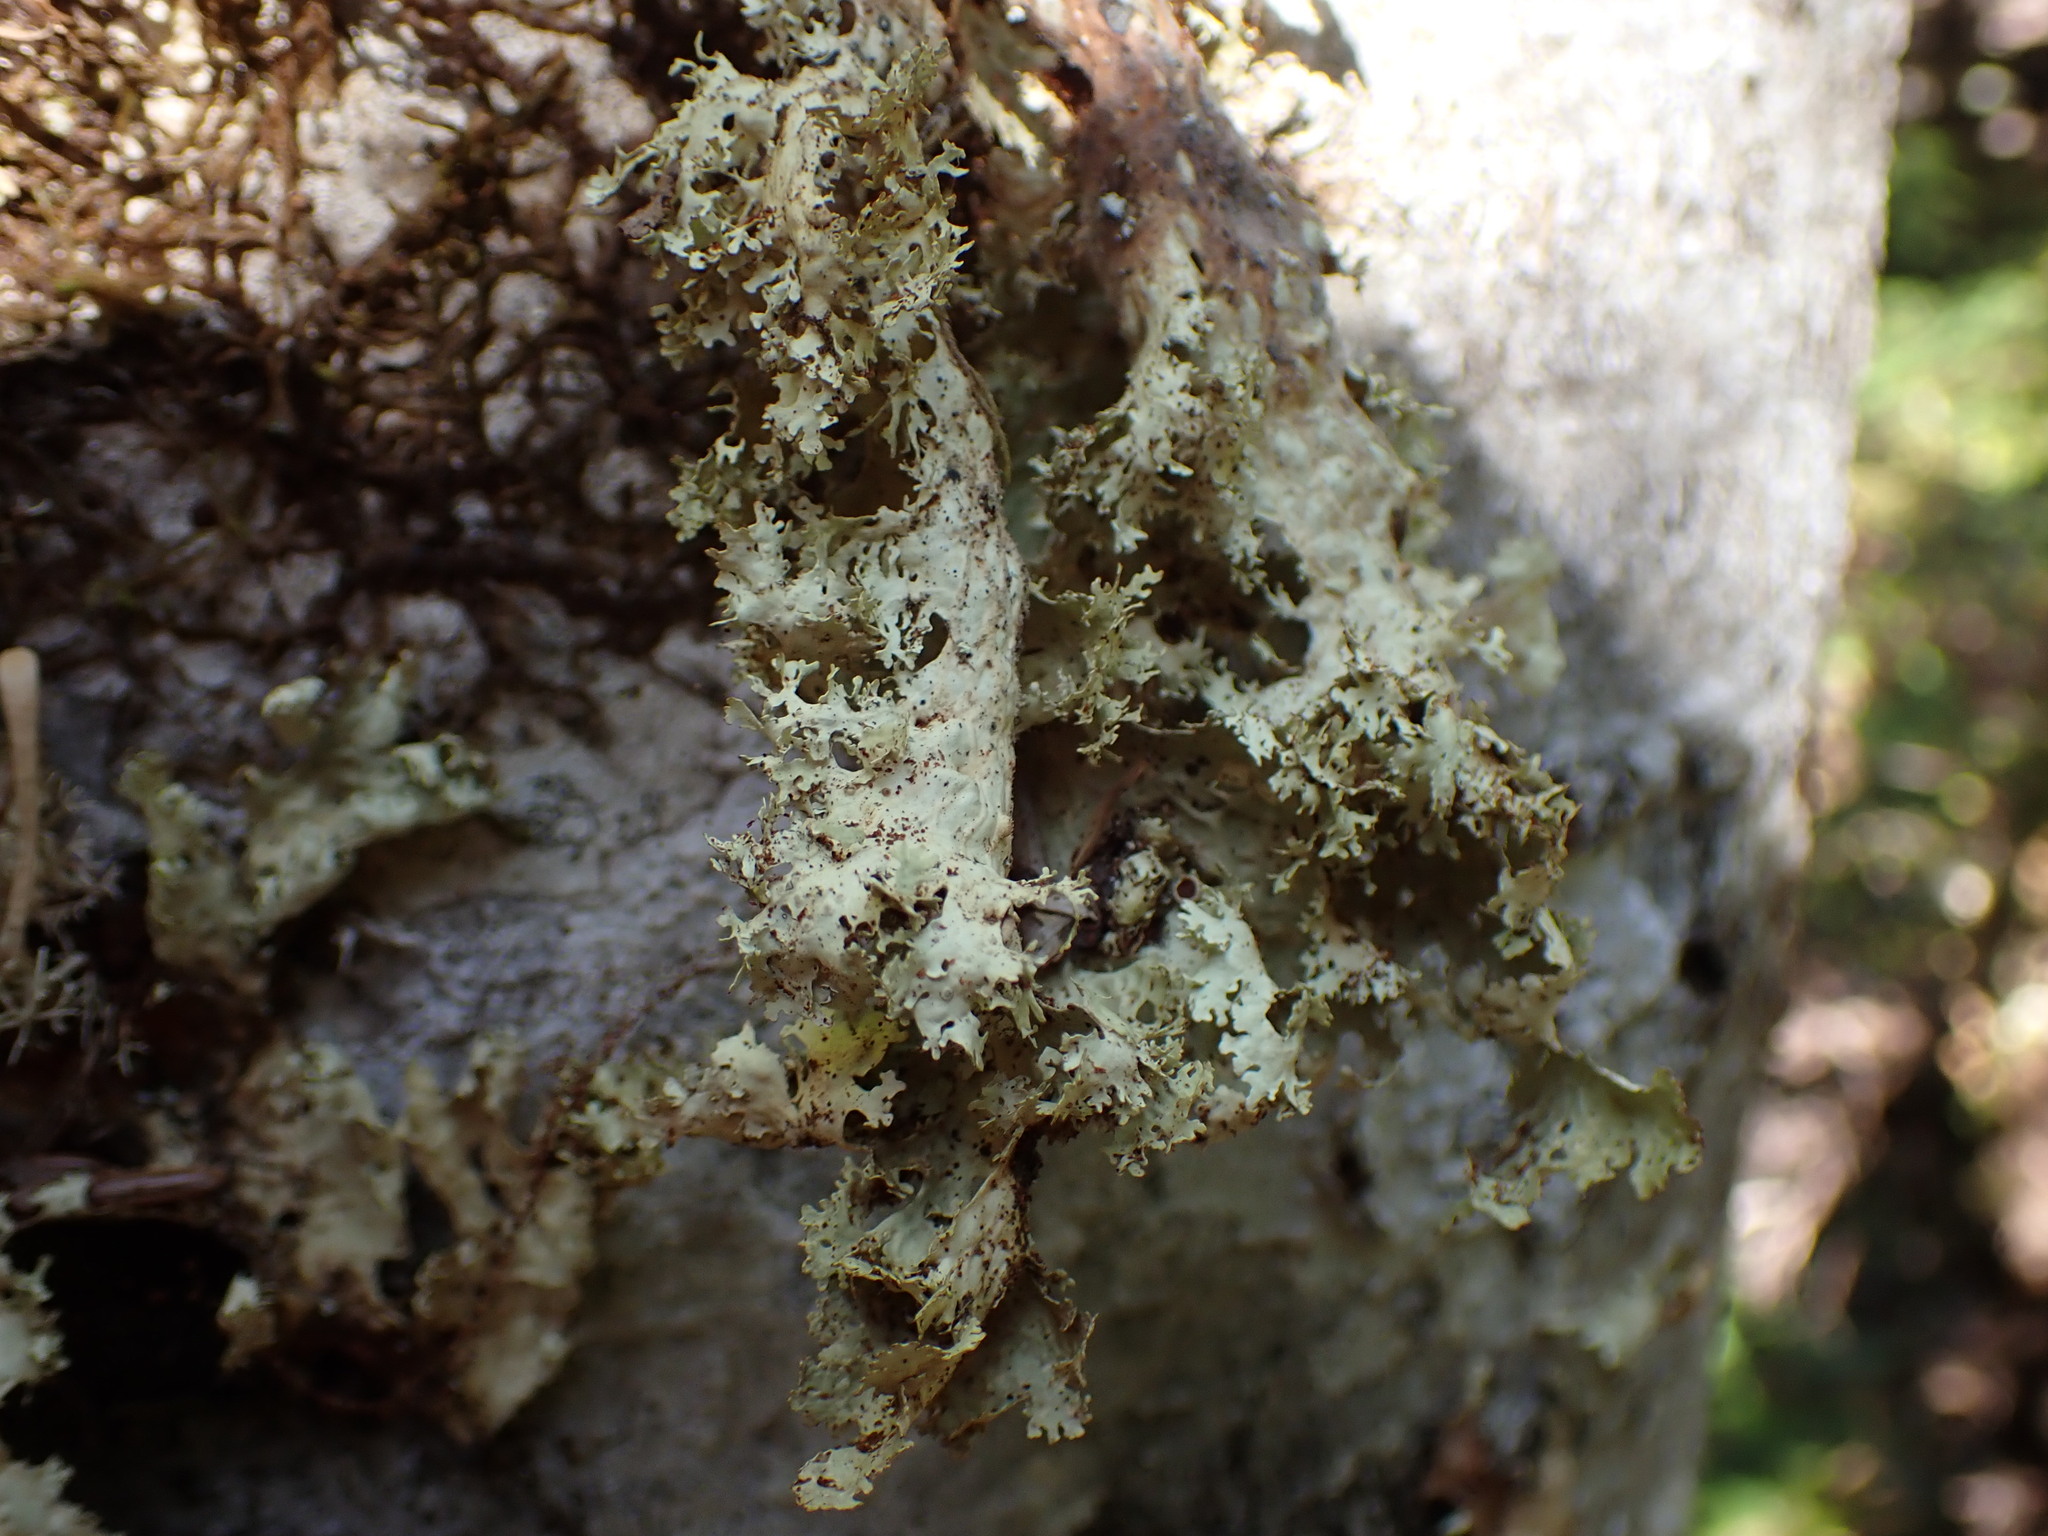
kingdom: Fungi
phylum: Ascomycota
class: Lecanoromycetes
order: Peltigerales
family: Lobariaceae
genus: Lobaria
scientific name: Lobaria oregana
